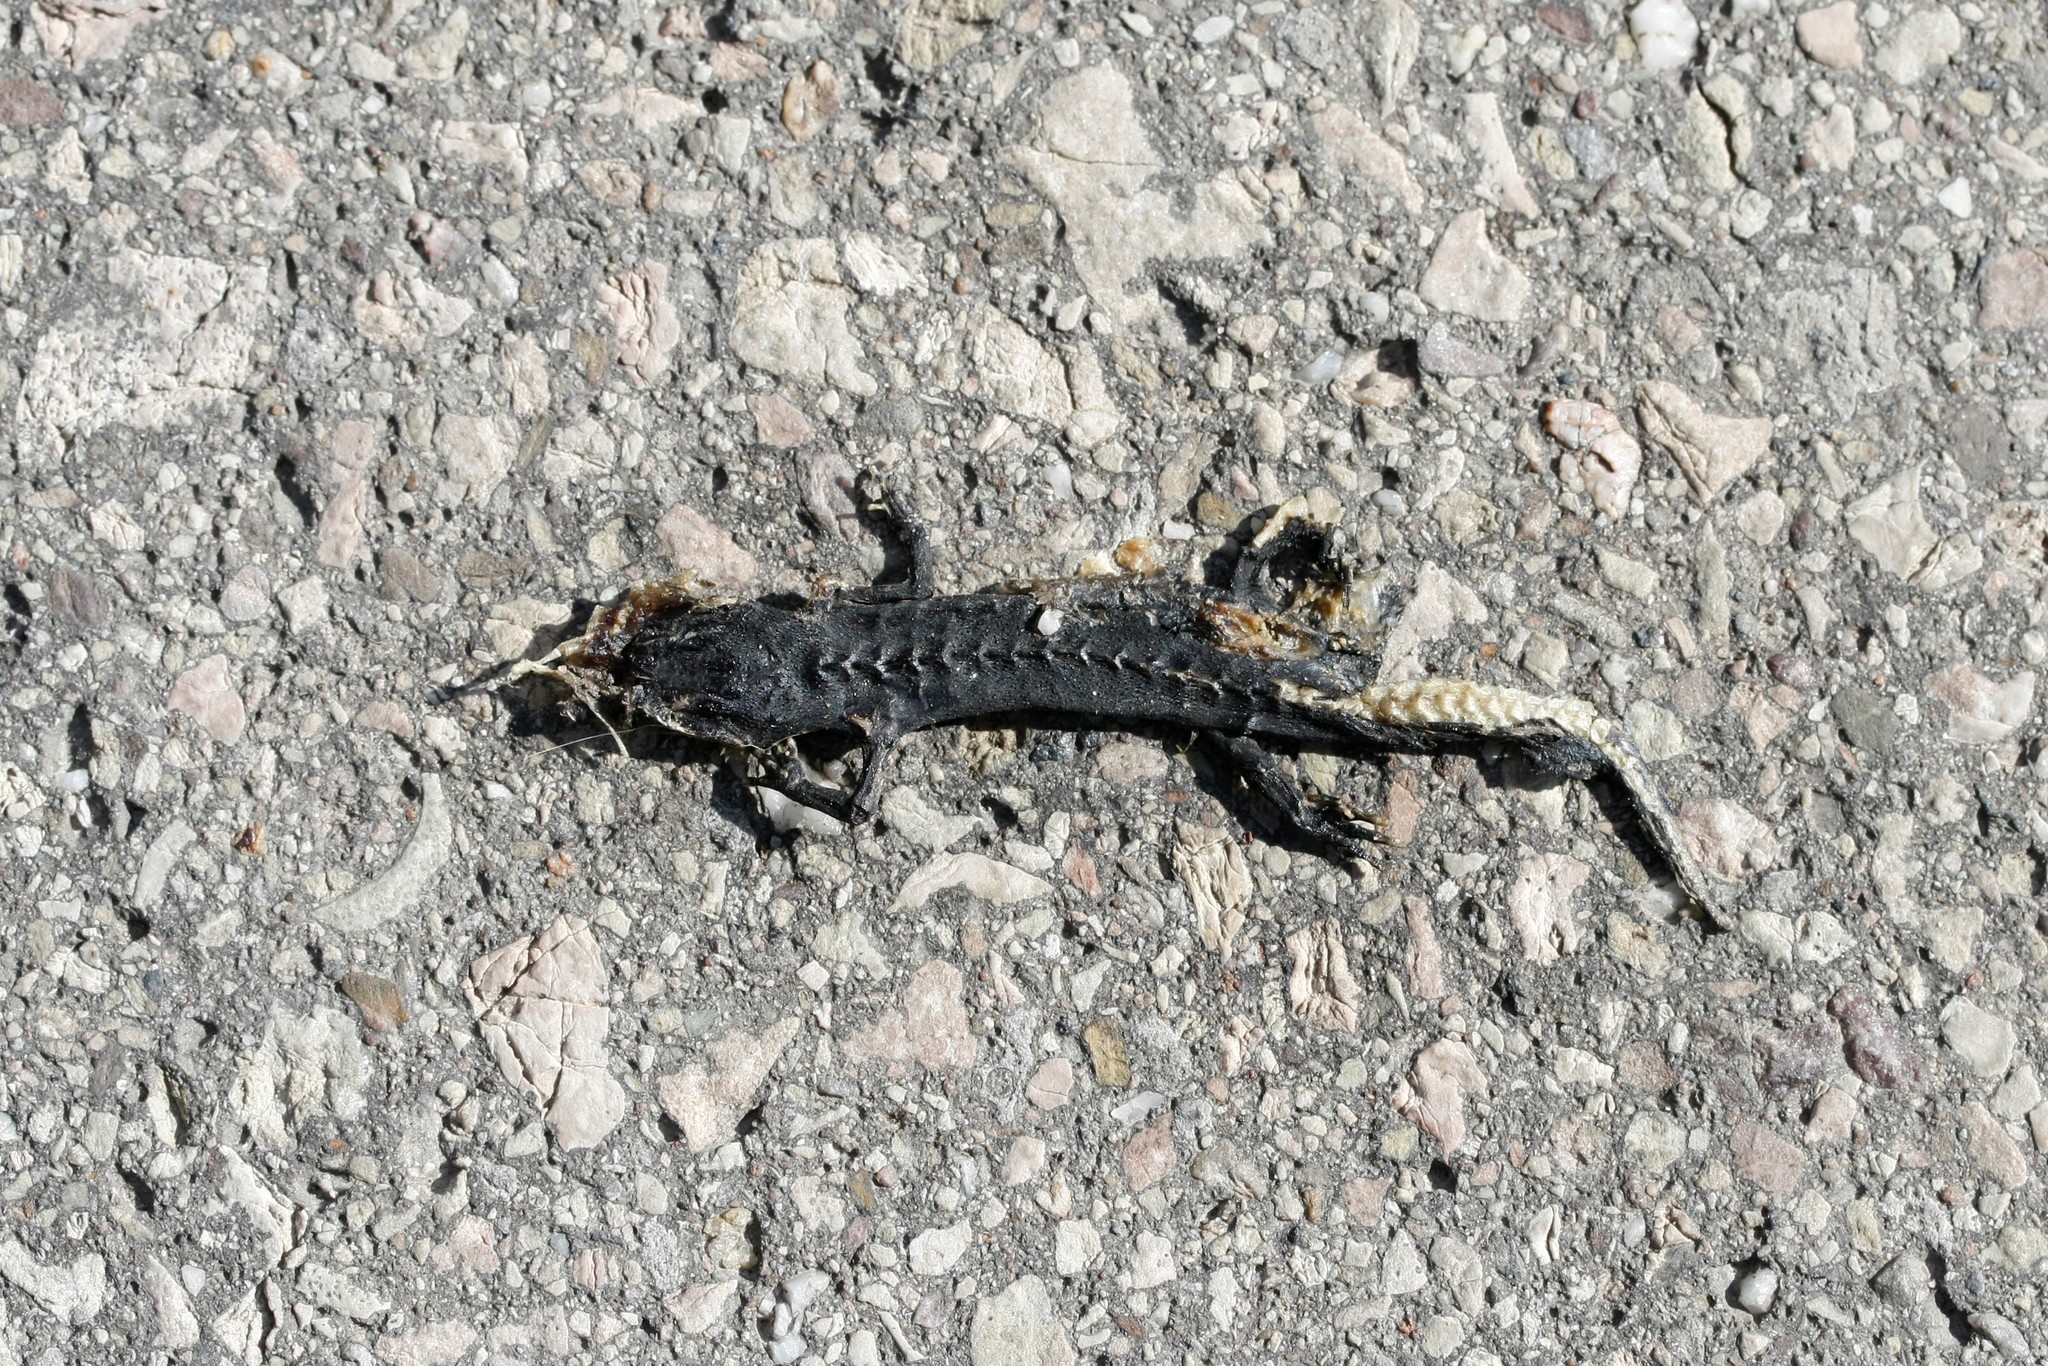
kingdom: Animalia
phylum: Chordata
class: Amphibia
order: Caudata
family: Salamandridae
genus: Ichthyosaura
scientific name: Ichthyosaura alpestris
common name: Alpine newt
